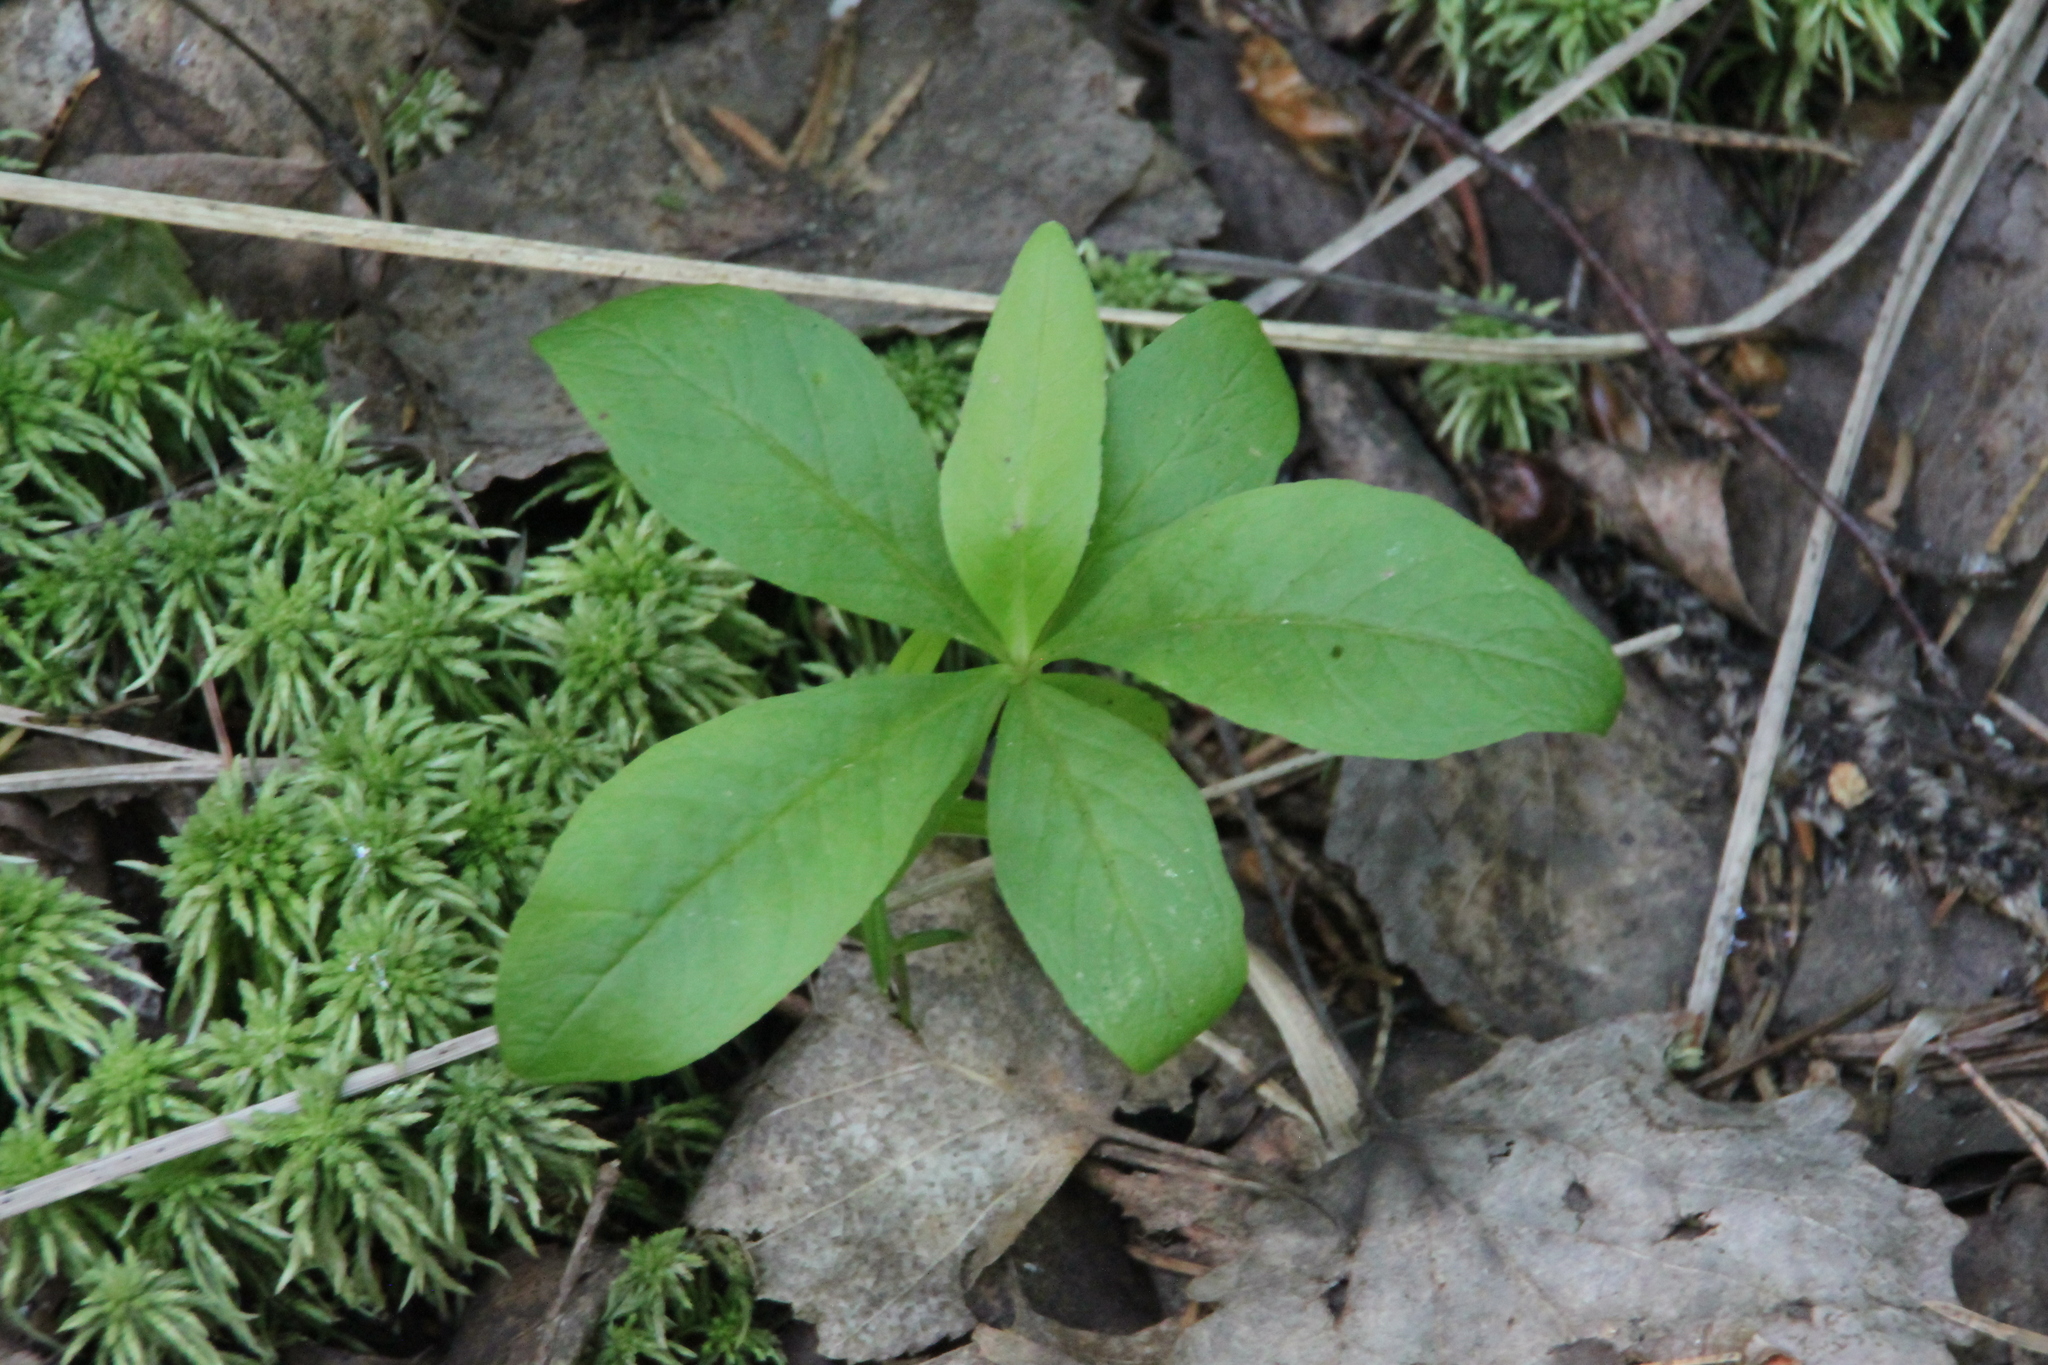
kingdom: Plantae
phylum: Tracheophyta
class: Magnoliopsida
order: Ericales
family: Primulaceae
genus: Lysimachia
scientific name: Lysimachia europaea
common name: Arctic starflower
